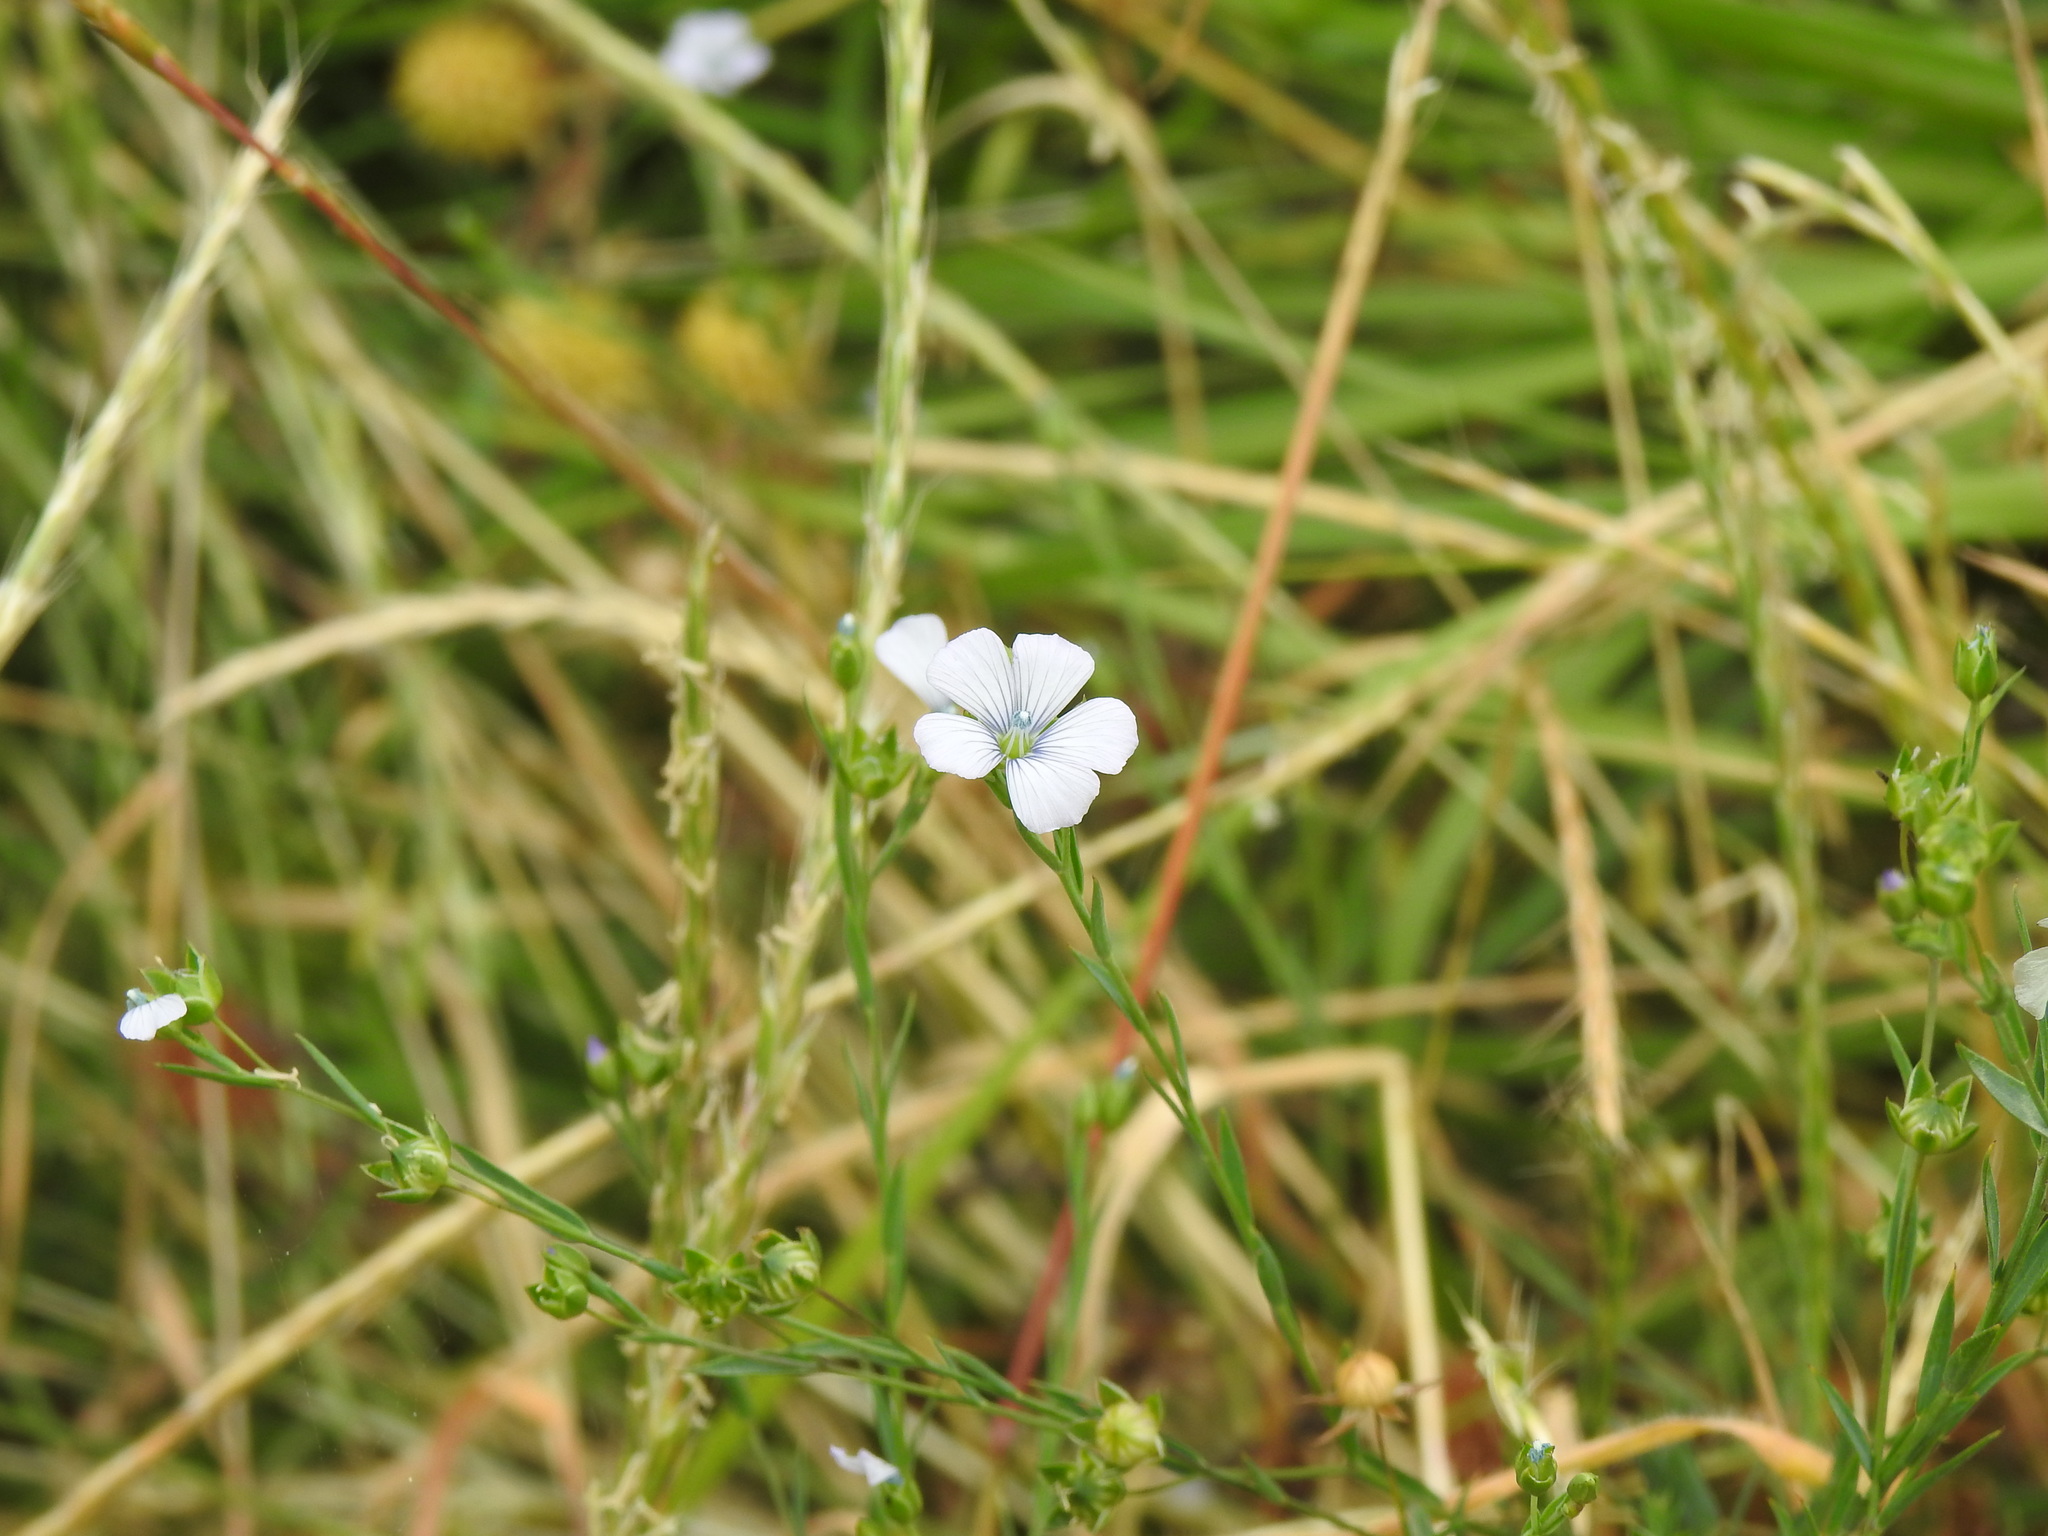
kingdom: Plantae
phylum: Tracheophyta
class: Magnoliopsida
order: Malpighiales
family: Linaceae
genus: Linum
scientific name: Linum bienne
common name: Pale flax
